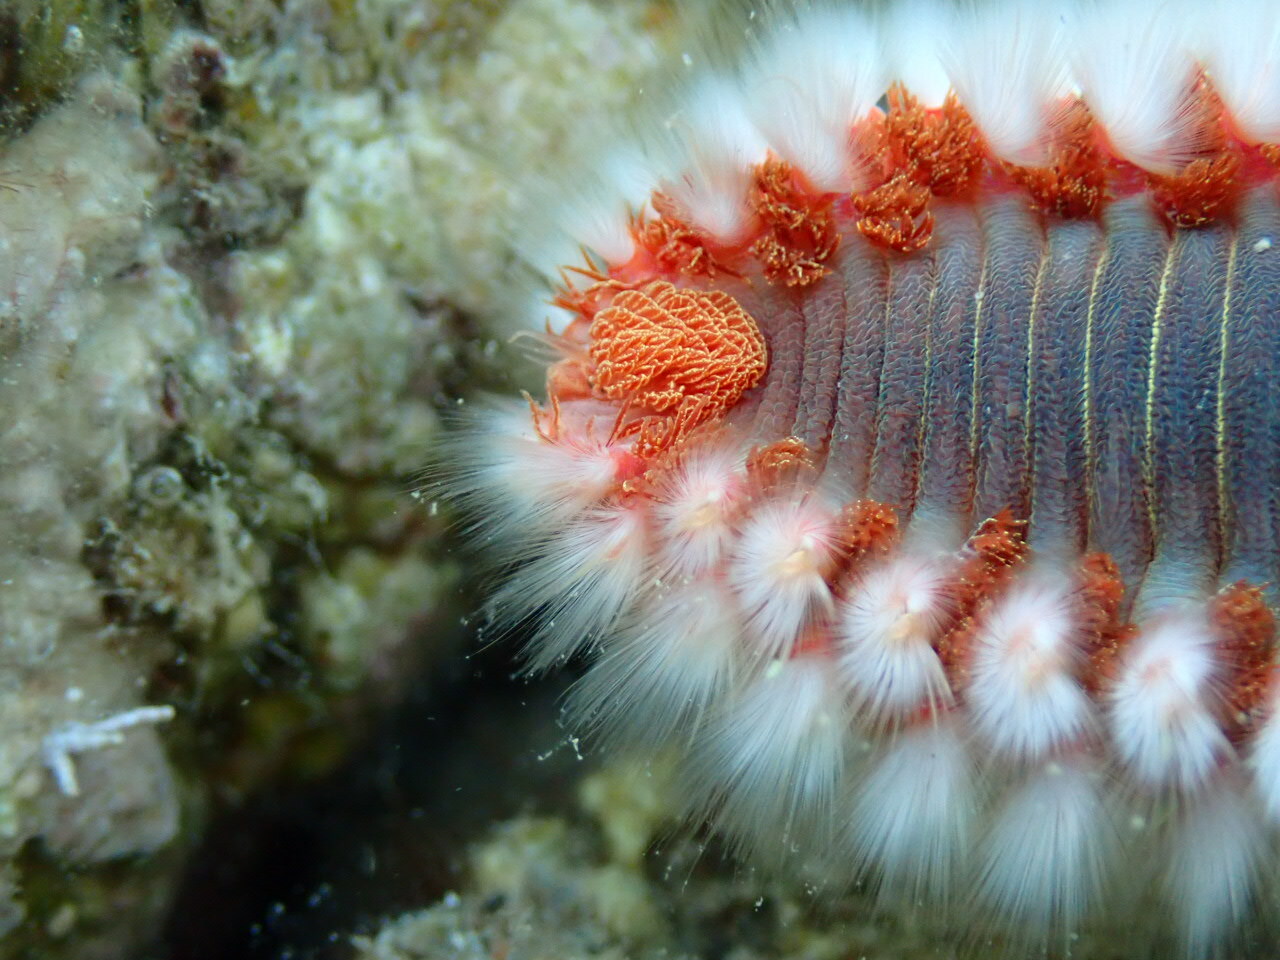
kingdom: Animalia
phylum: Annelida
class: Polychaeta
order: Amphinomida
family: Amphinomidae
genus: Hermodice
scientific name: Hermodice carunculata
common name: Bearded fireworm
